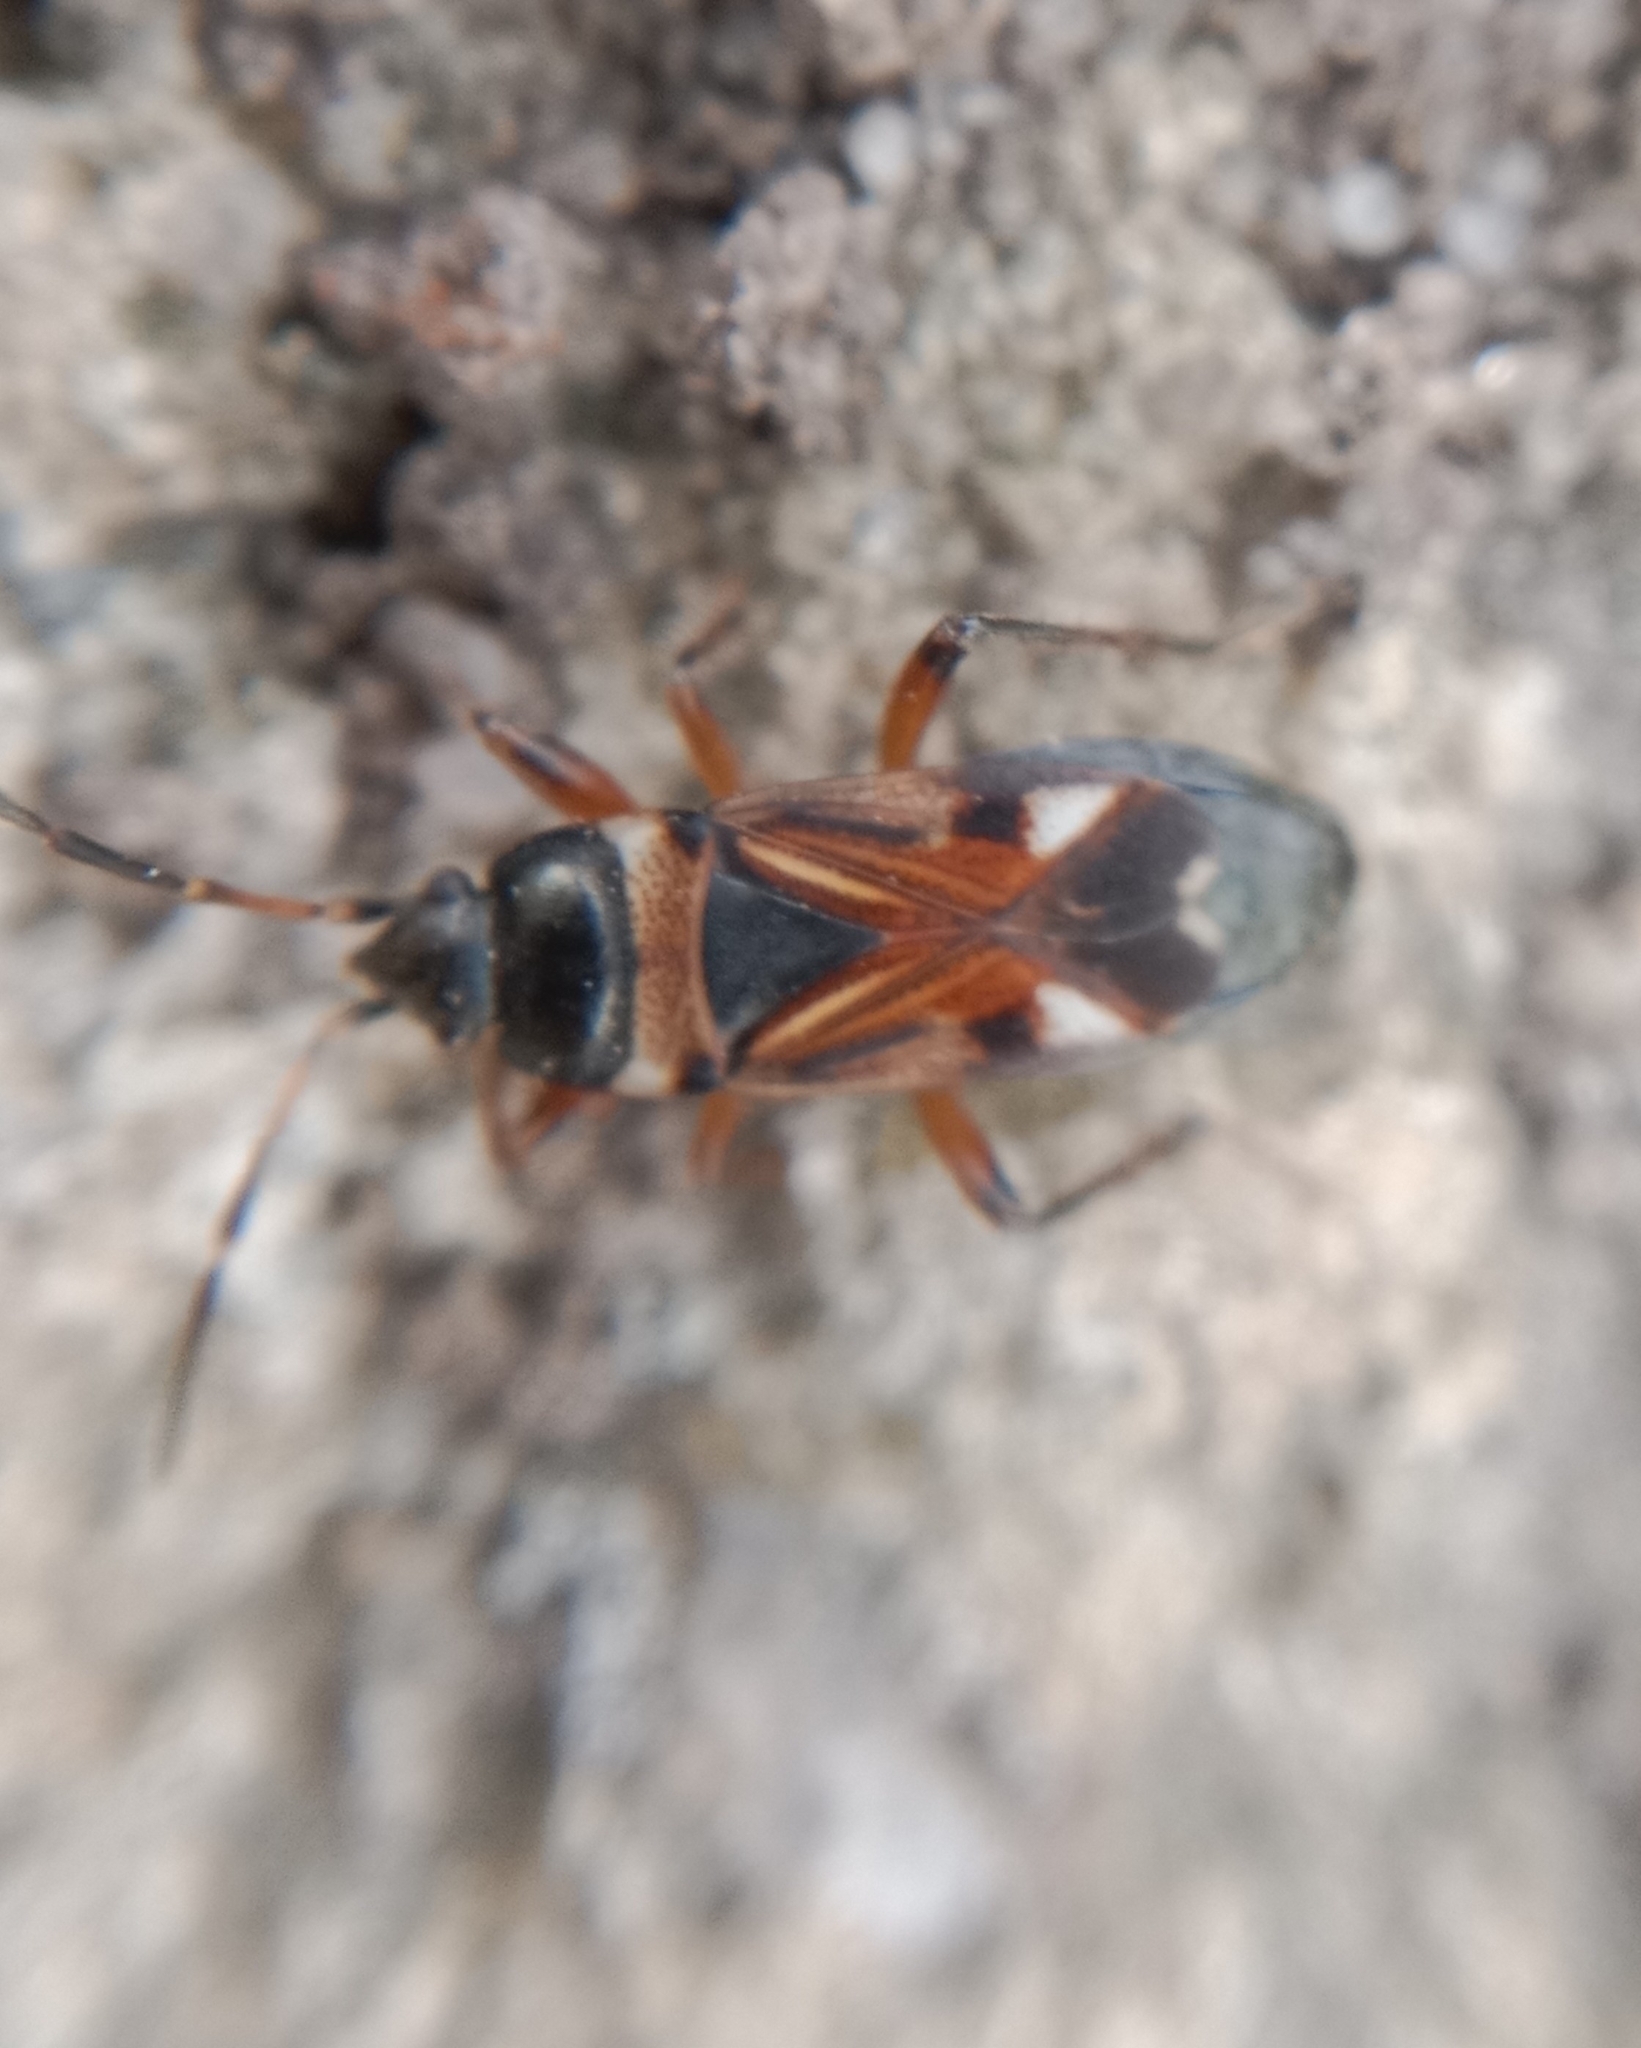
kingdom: Animalia
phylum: Arthropoda
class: Insecta
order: Hemiptera
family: Rhyparochromidae
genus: Raglius
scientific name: Raglius alboacuminatus
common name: Dirt-colored seed bug
